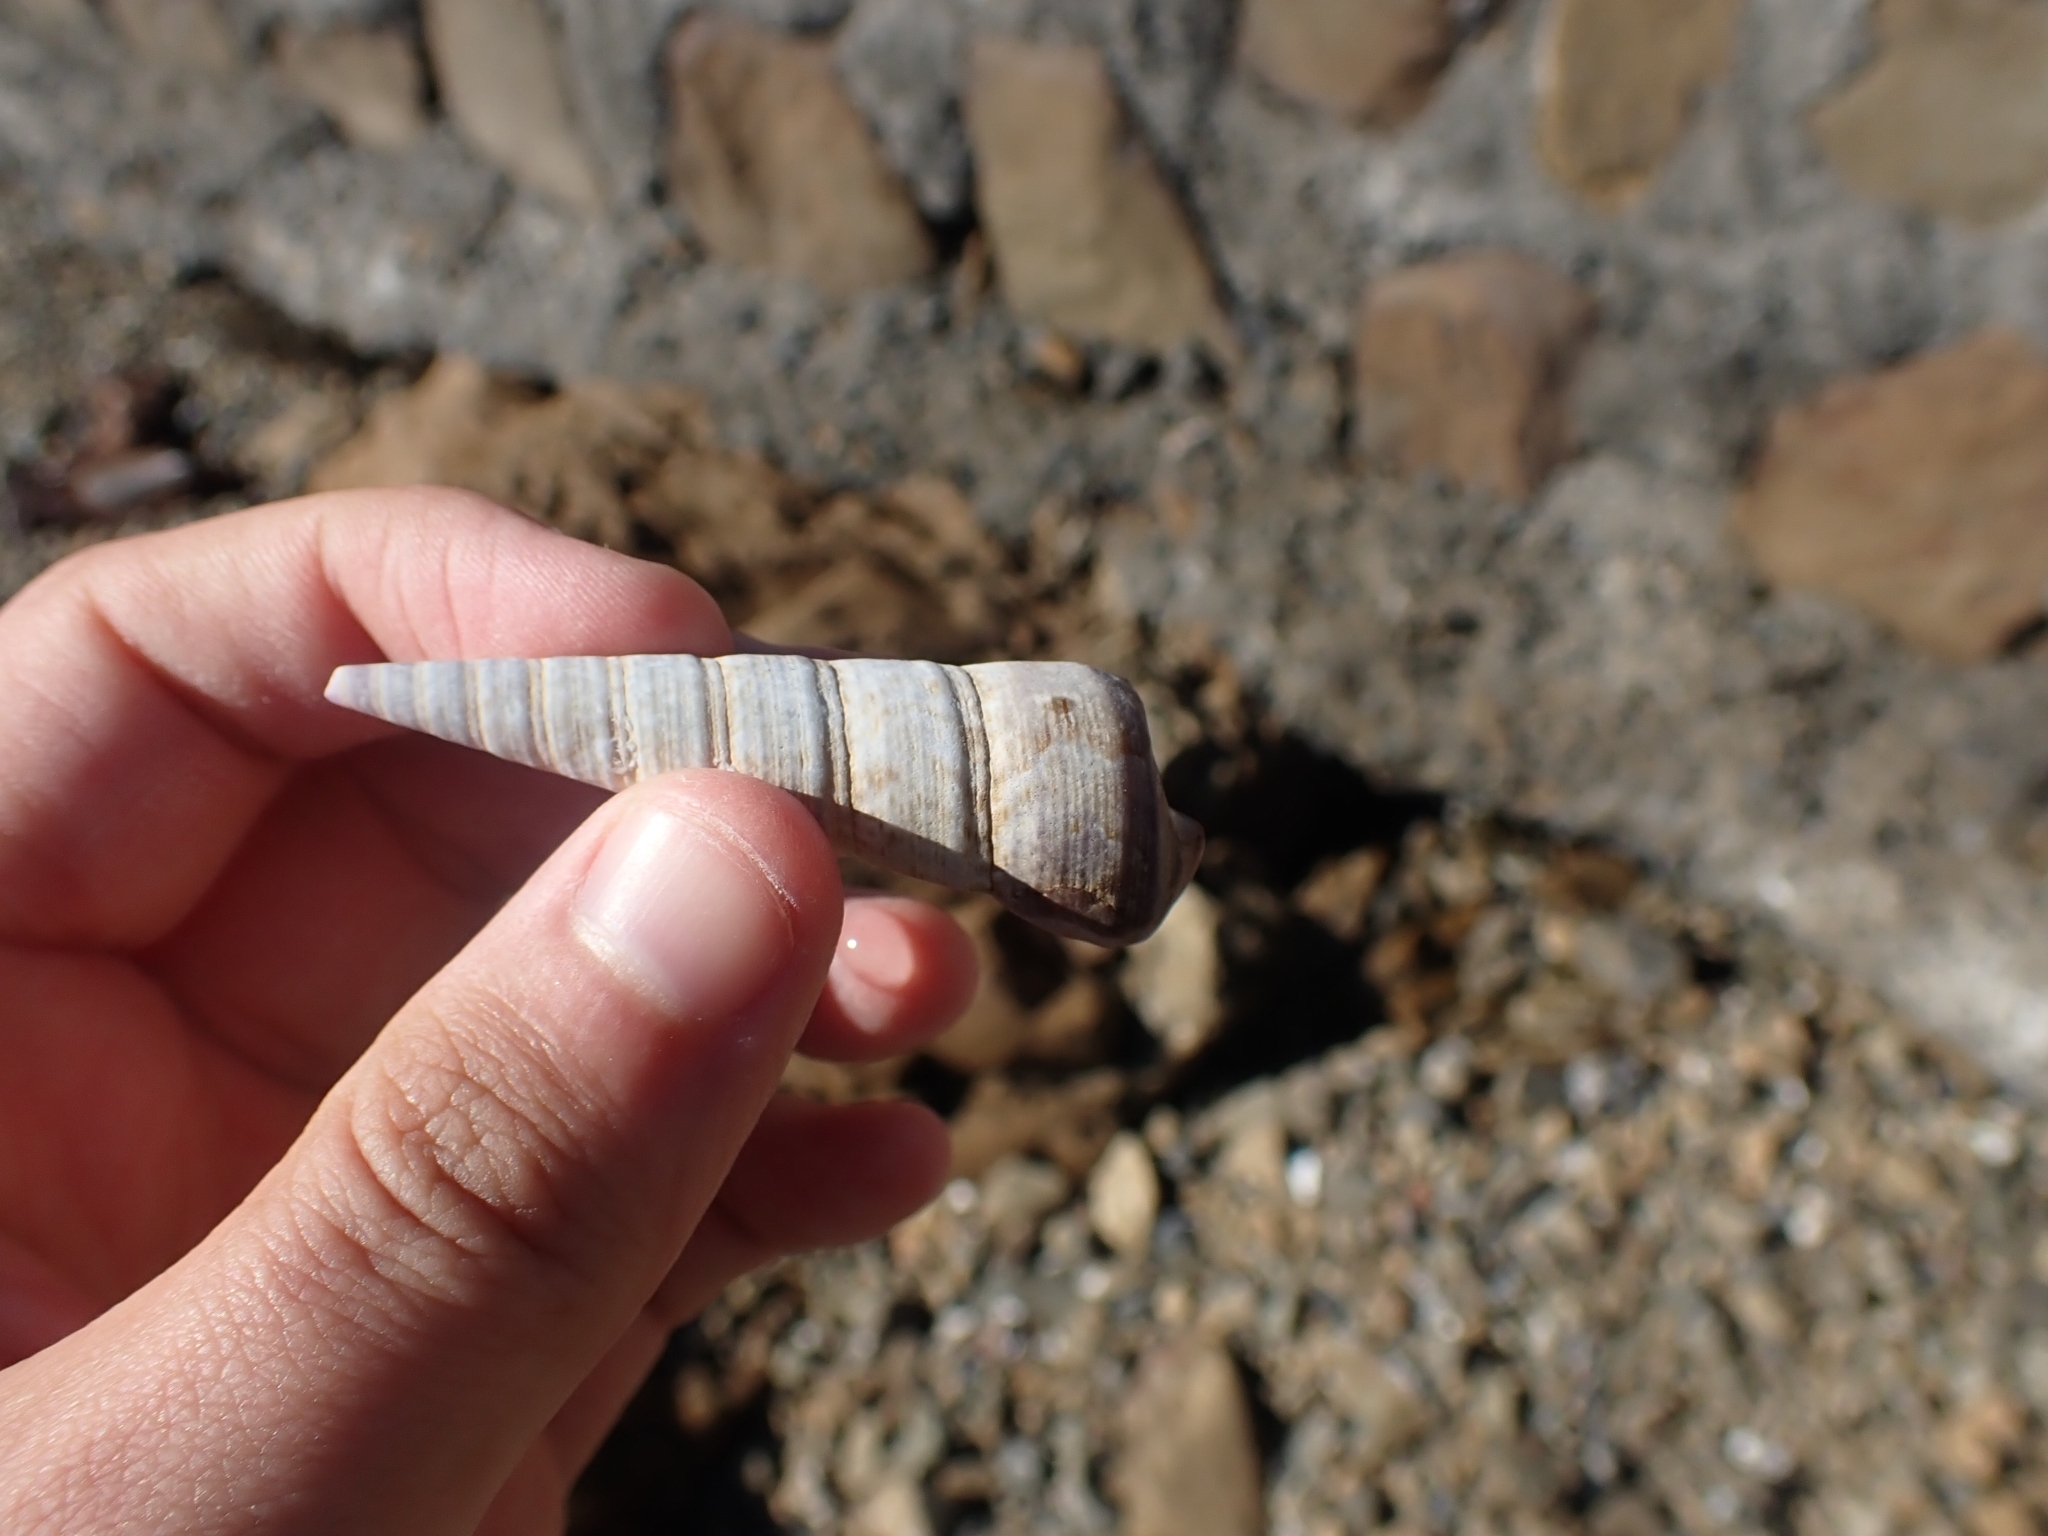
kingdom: Animalia
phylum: Mollusca
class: Gastropoda
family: Turritellidae
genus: Maoricolpus
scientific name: Maoricolpus roseus
